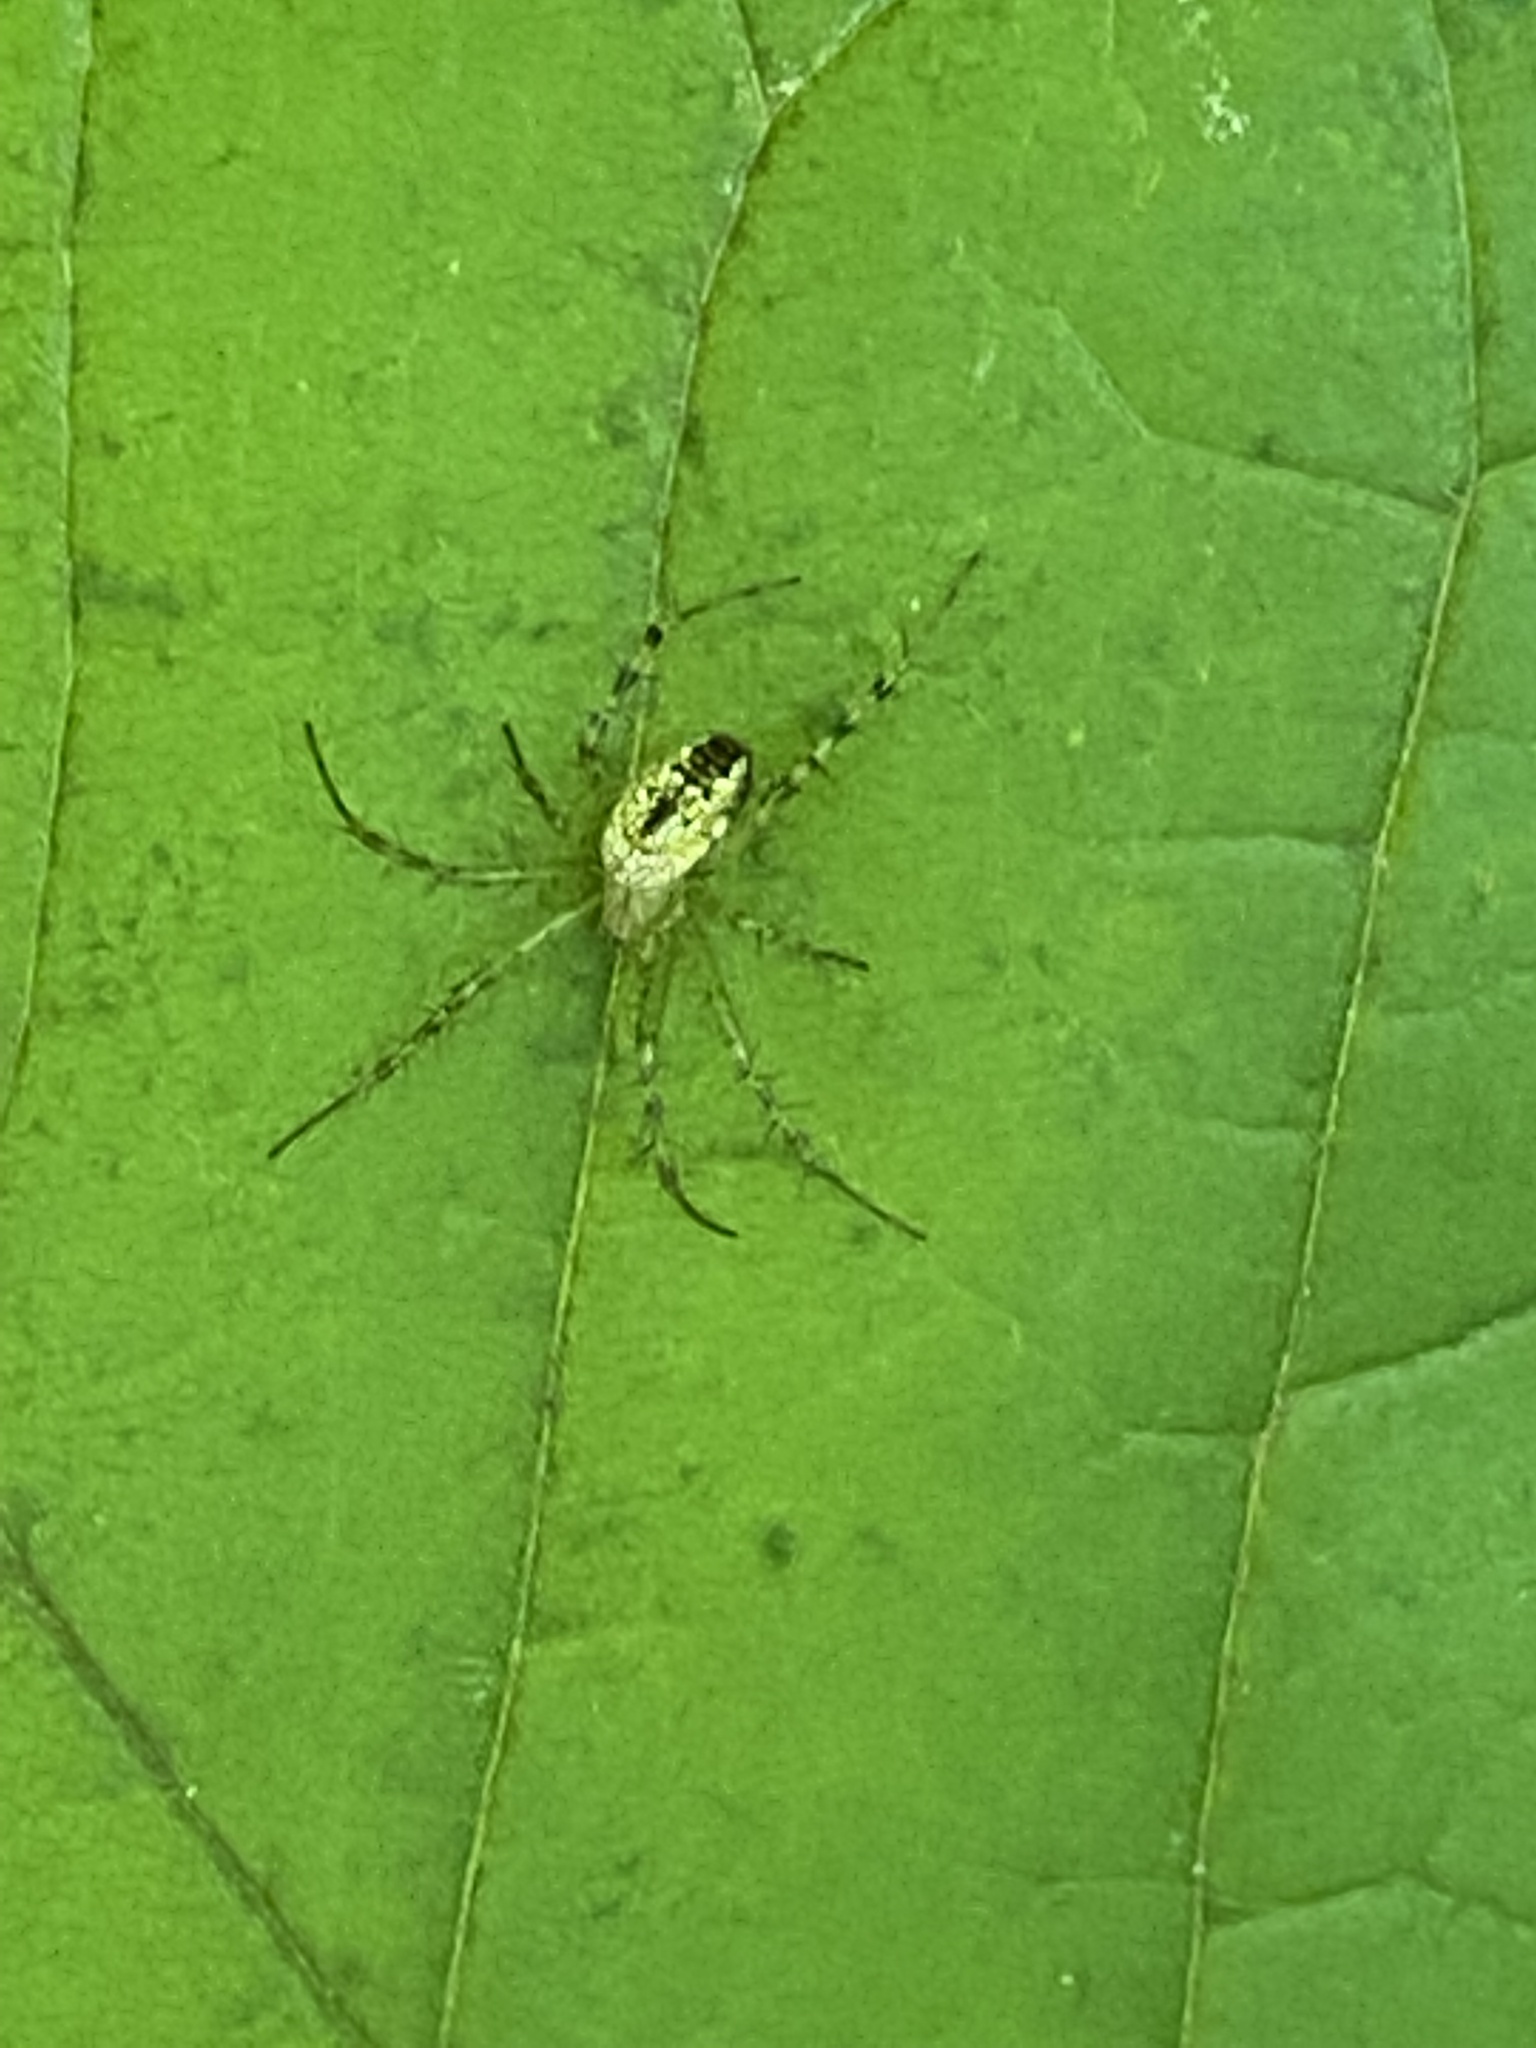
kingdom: Animalia
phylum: Arthropoda
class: Arachnida
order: Araneae
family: Araneidae
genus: Mangora
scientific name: Mangora spiculata
